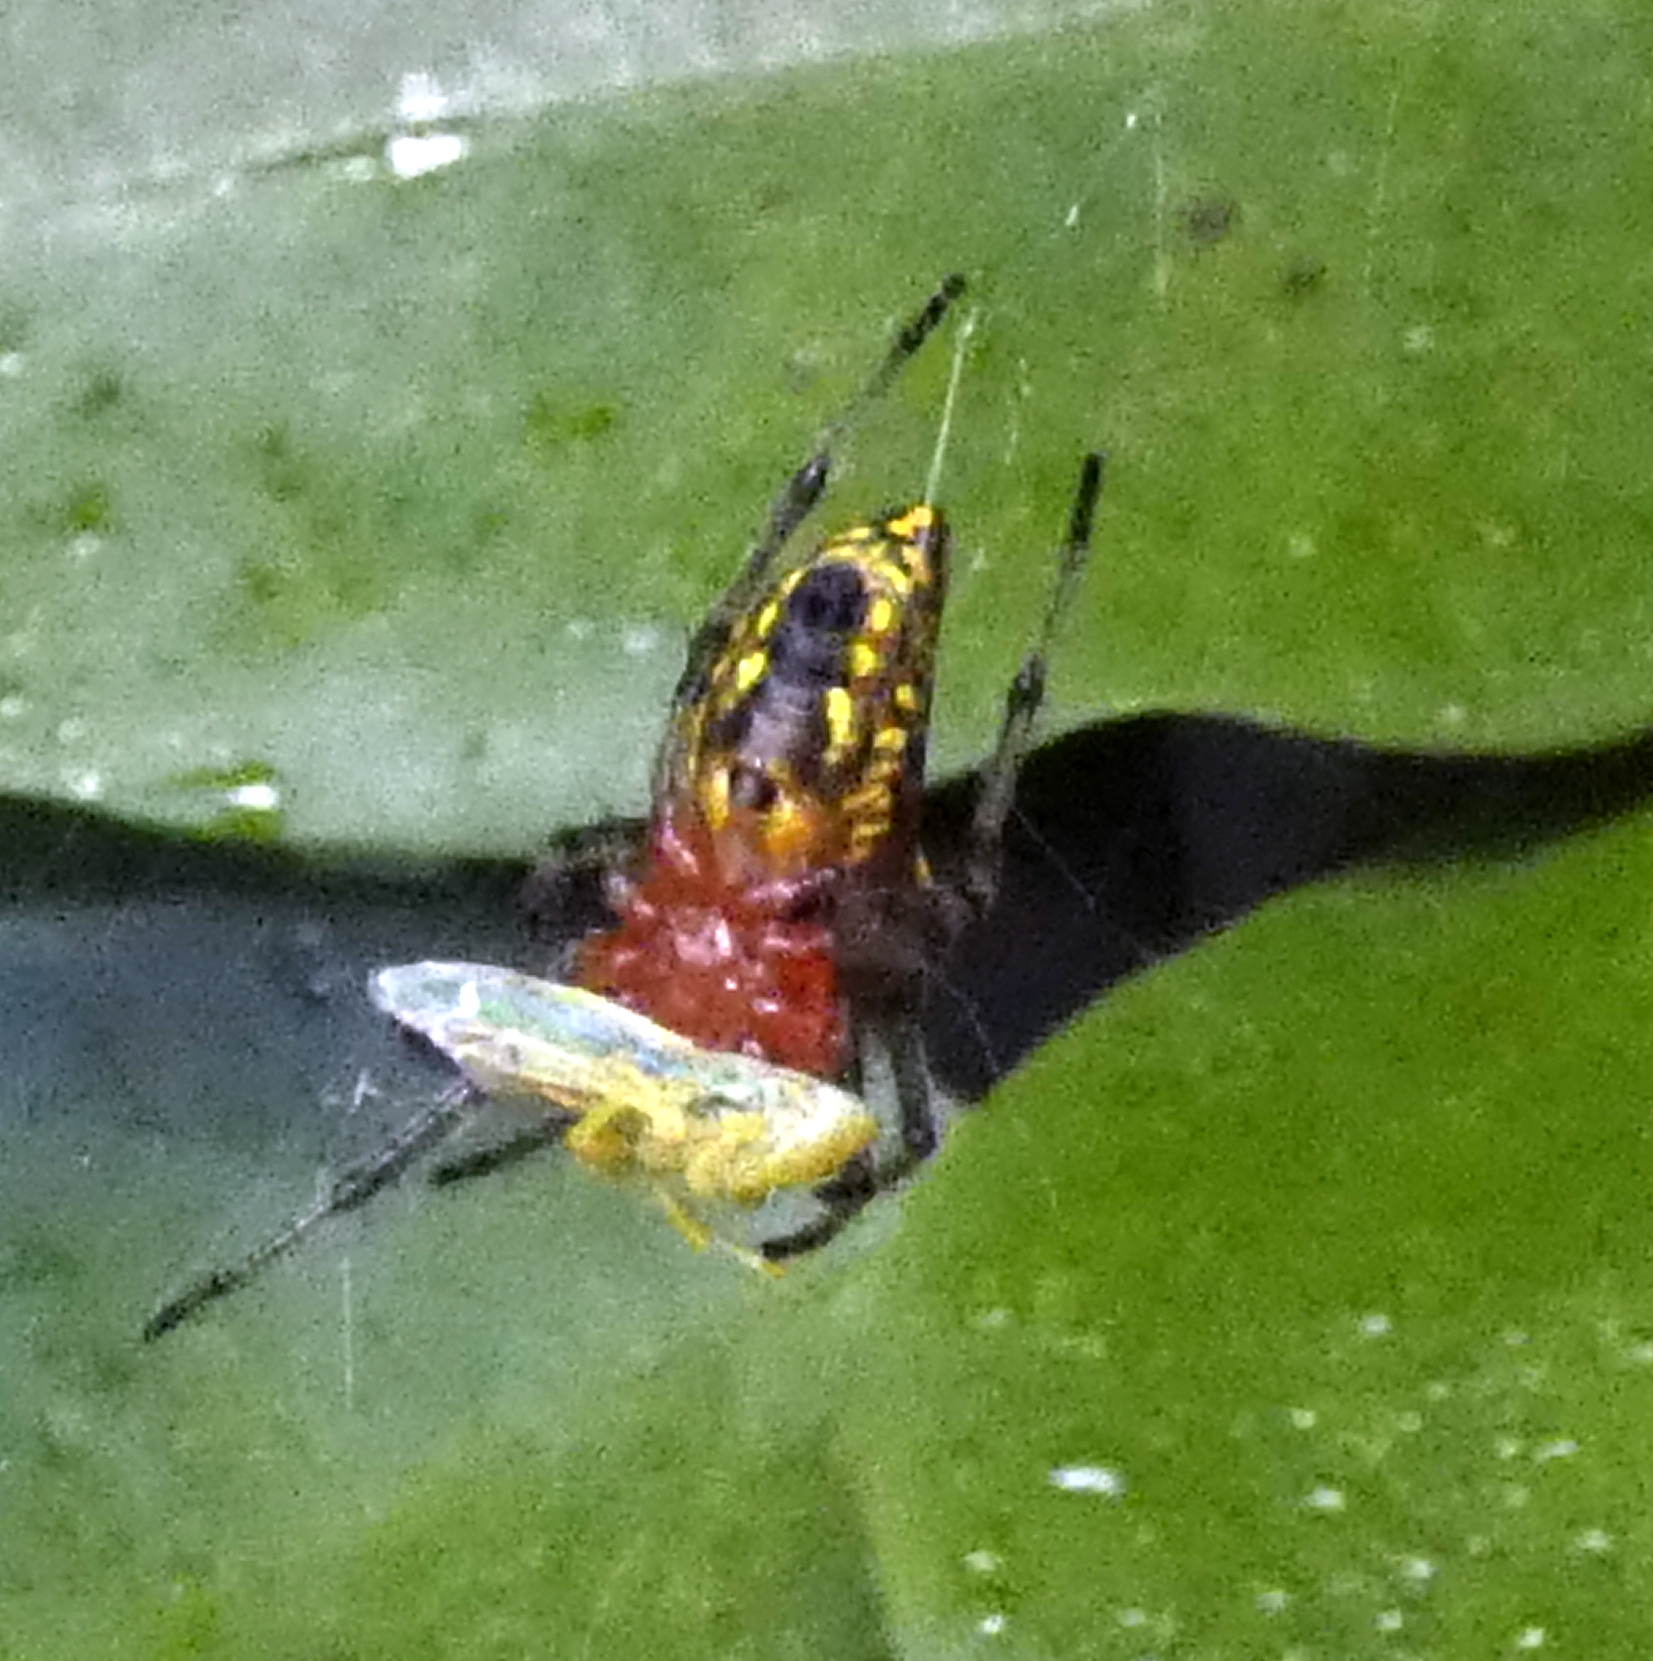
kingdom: Animalia
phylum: Arthropoda
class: Arachnida
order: Araneae
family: Araneidae
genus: Alpaida
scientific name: Alpaida bicornuta
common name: Orb weavers
